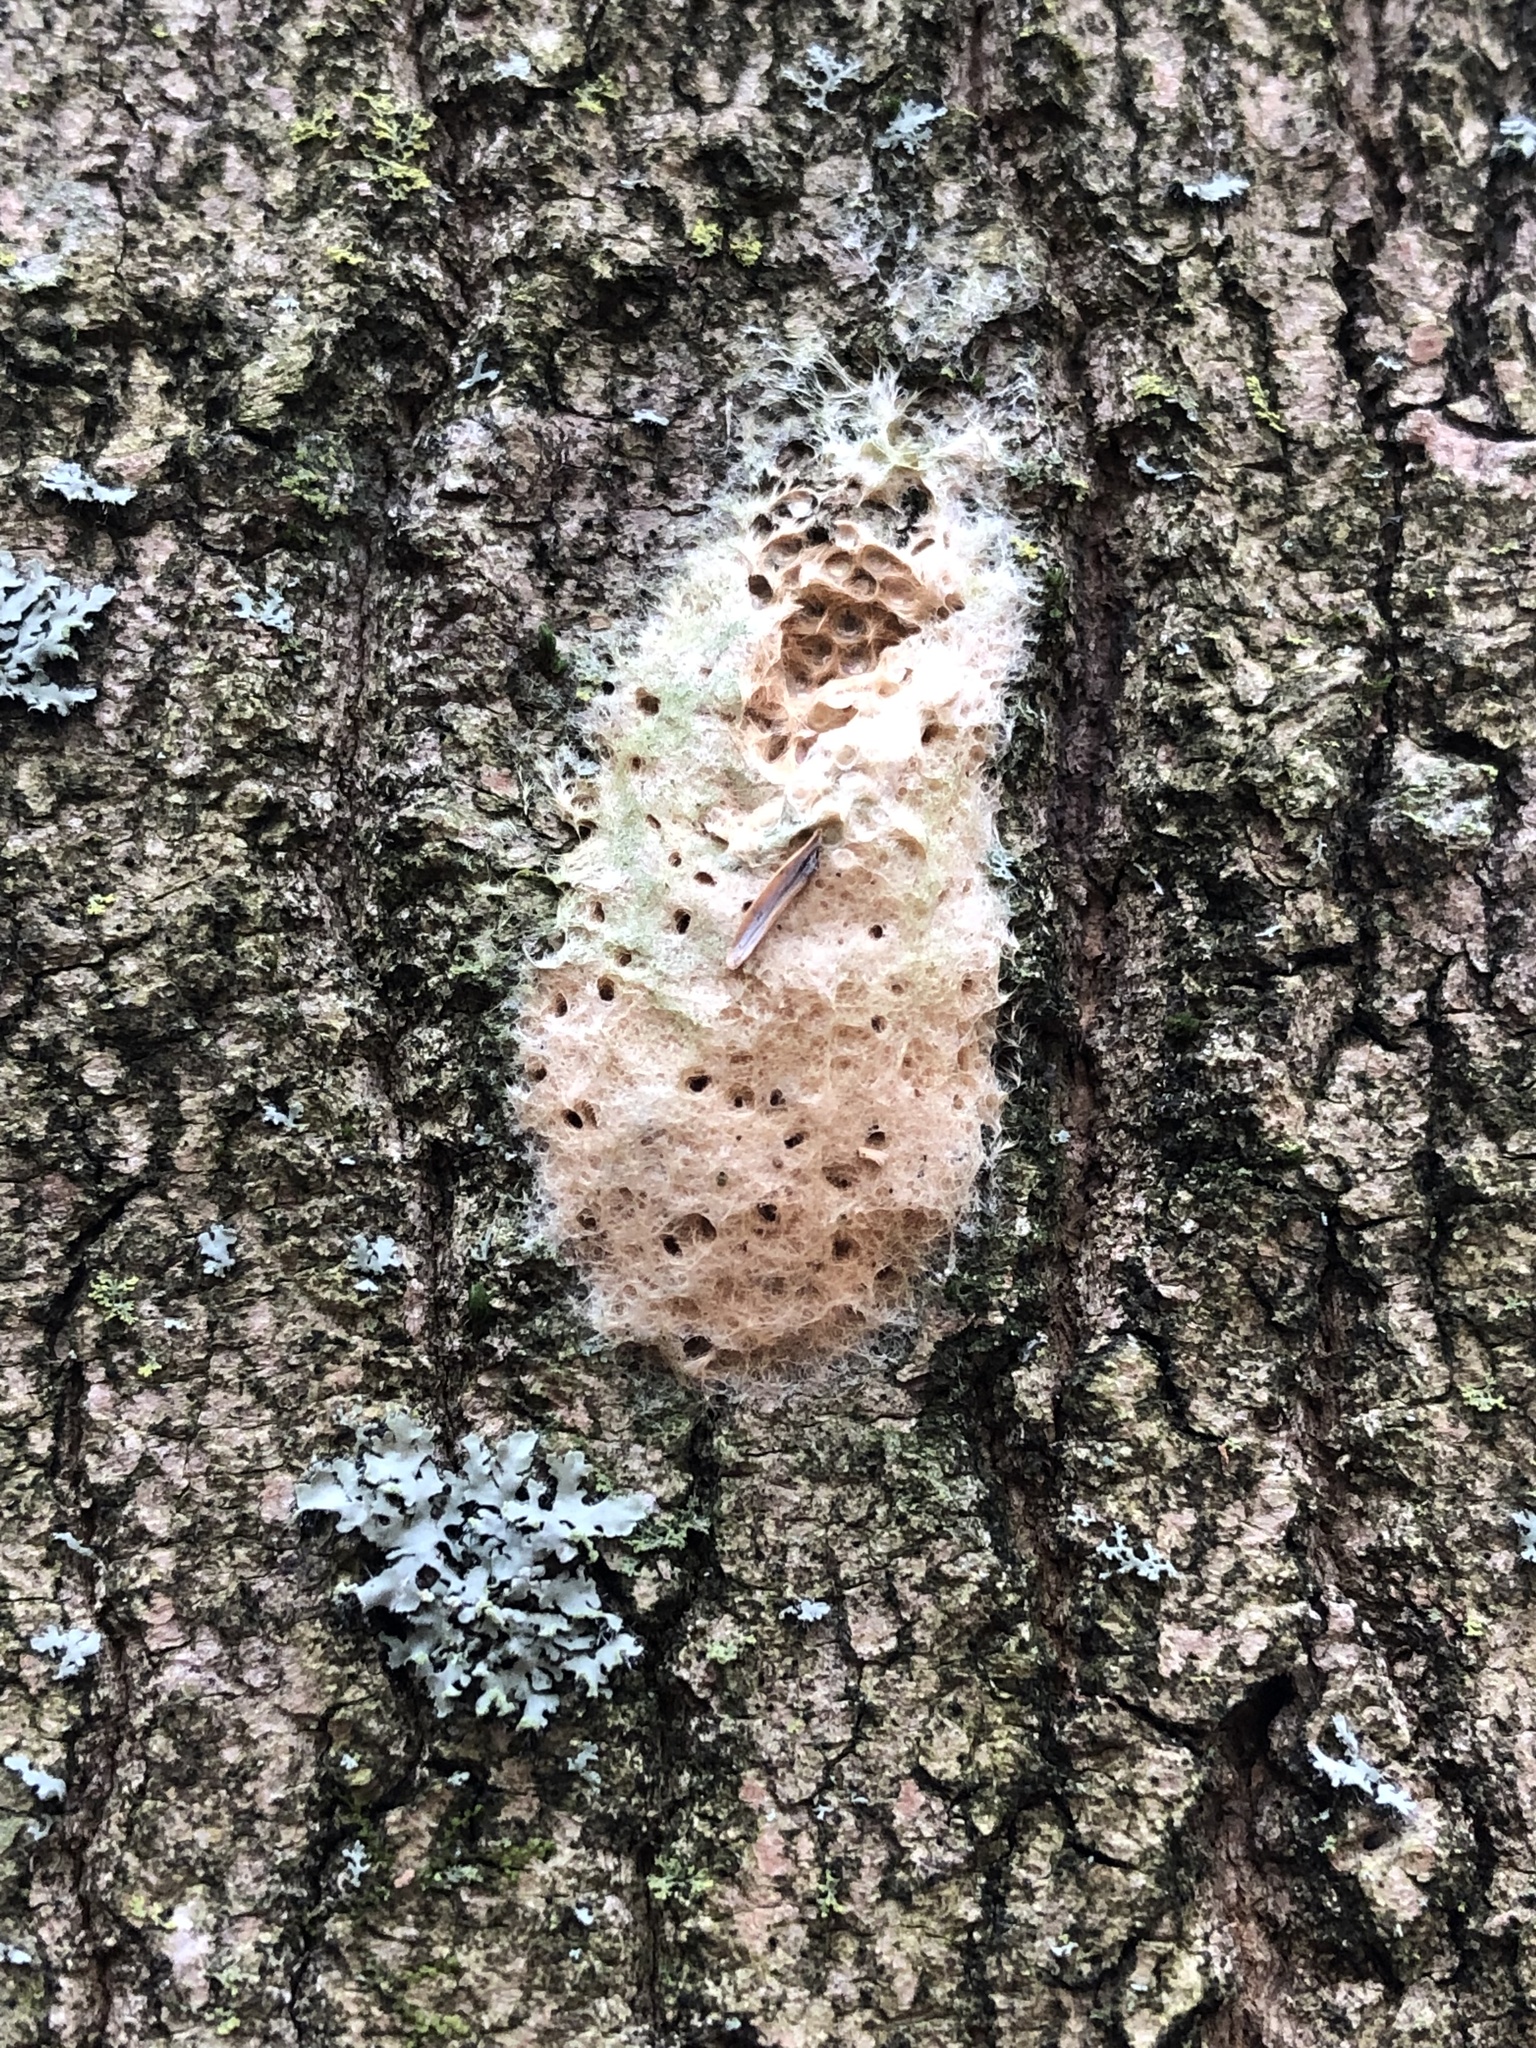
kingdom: Animalia
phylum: Arthropoda
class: Insecta
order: Lepidoptera
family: Erebidae
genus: Lymantria
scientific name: Lymantria dispar
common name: Gypsy moth
